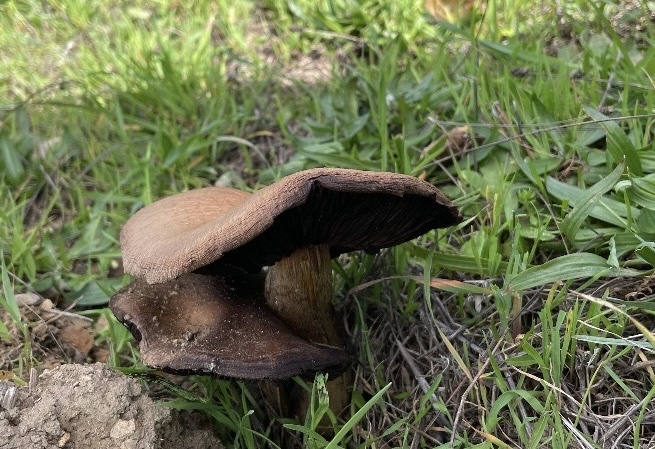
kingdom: Fungi
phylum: Basidiomycota
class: Agaricomycetes
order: Agaricales
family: Psathyrellaceae
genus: Lacrymaria
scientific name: Lacrymaria lacrymabunda
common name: Weeping widow
